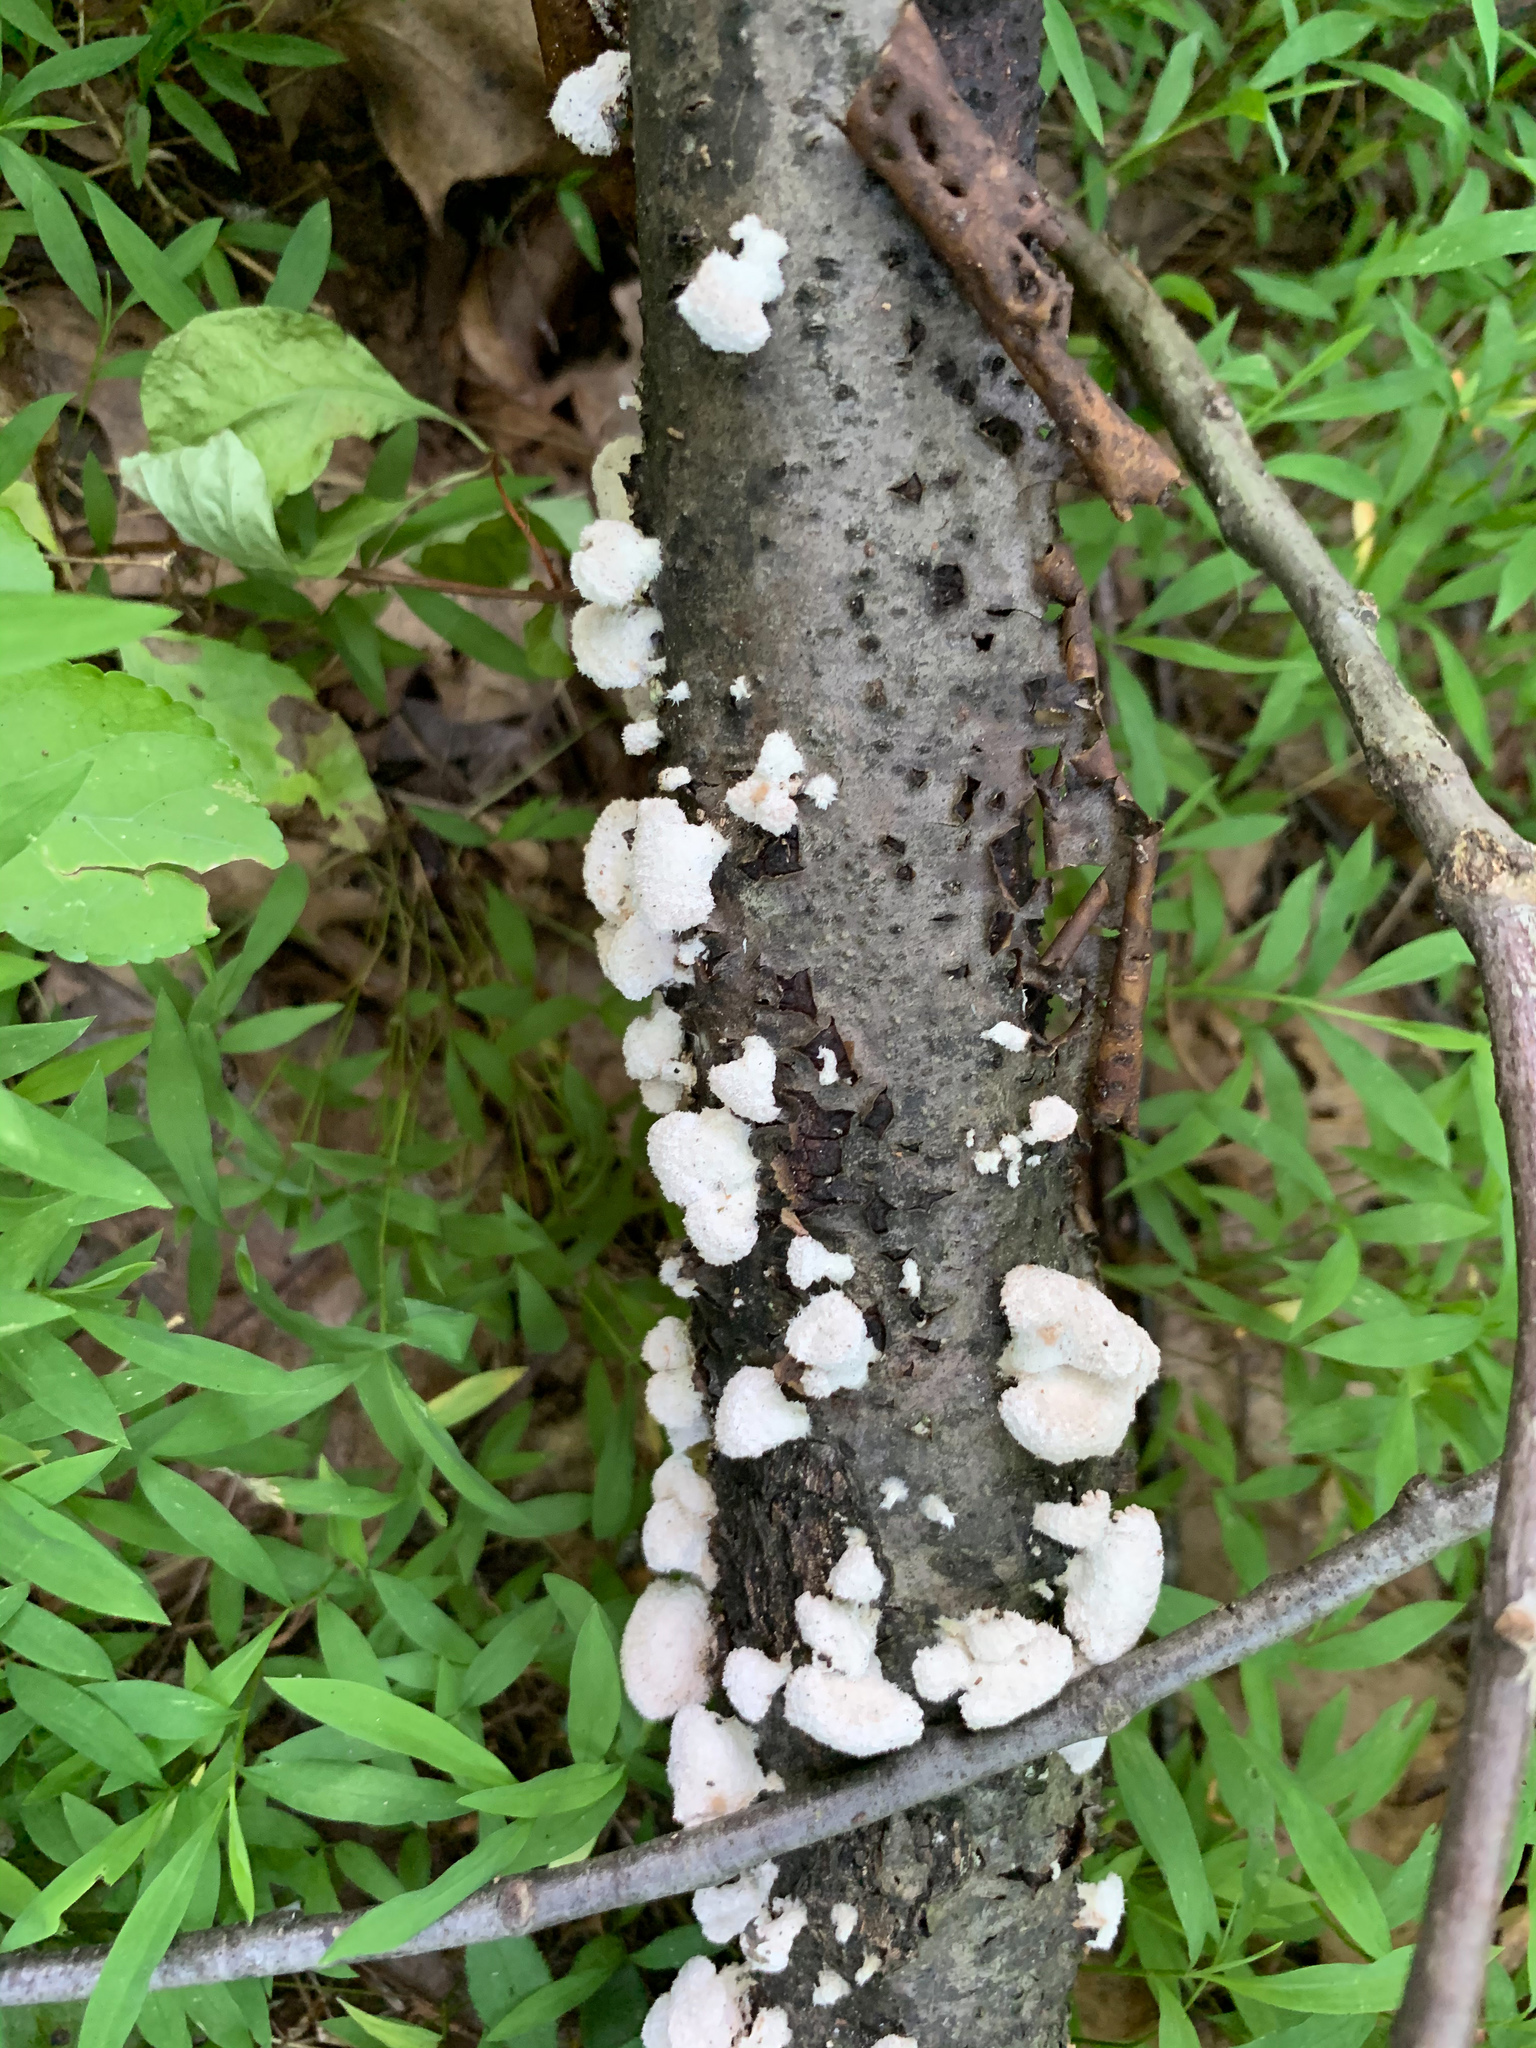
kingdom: Fungi
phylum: Basidiomycota
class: Agaricomycetes
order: Agaricales
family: Schizophyllaceae
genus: Schizophyllum
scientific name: Schizophyllum commune
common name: Common porecrust
